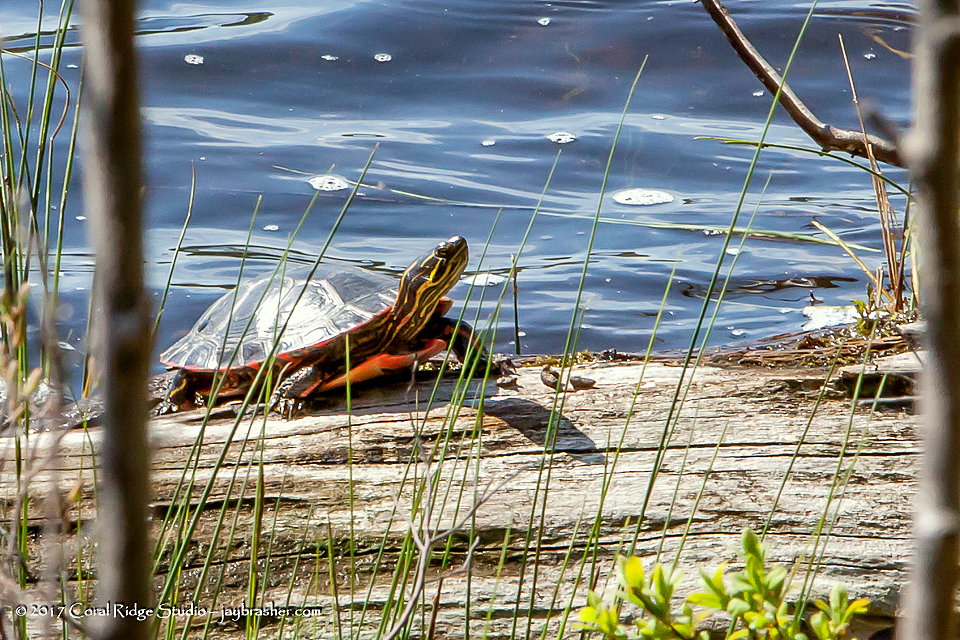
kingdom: Animalia
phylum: Chordata
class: Testudines
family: Emydidae
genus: Chrysemys
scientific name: Chrysemys picta
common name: Painted turtle
